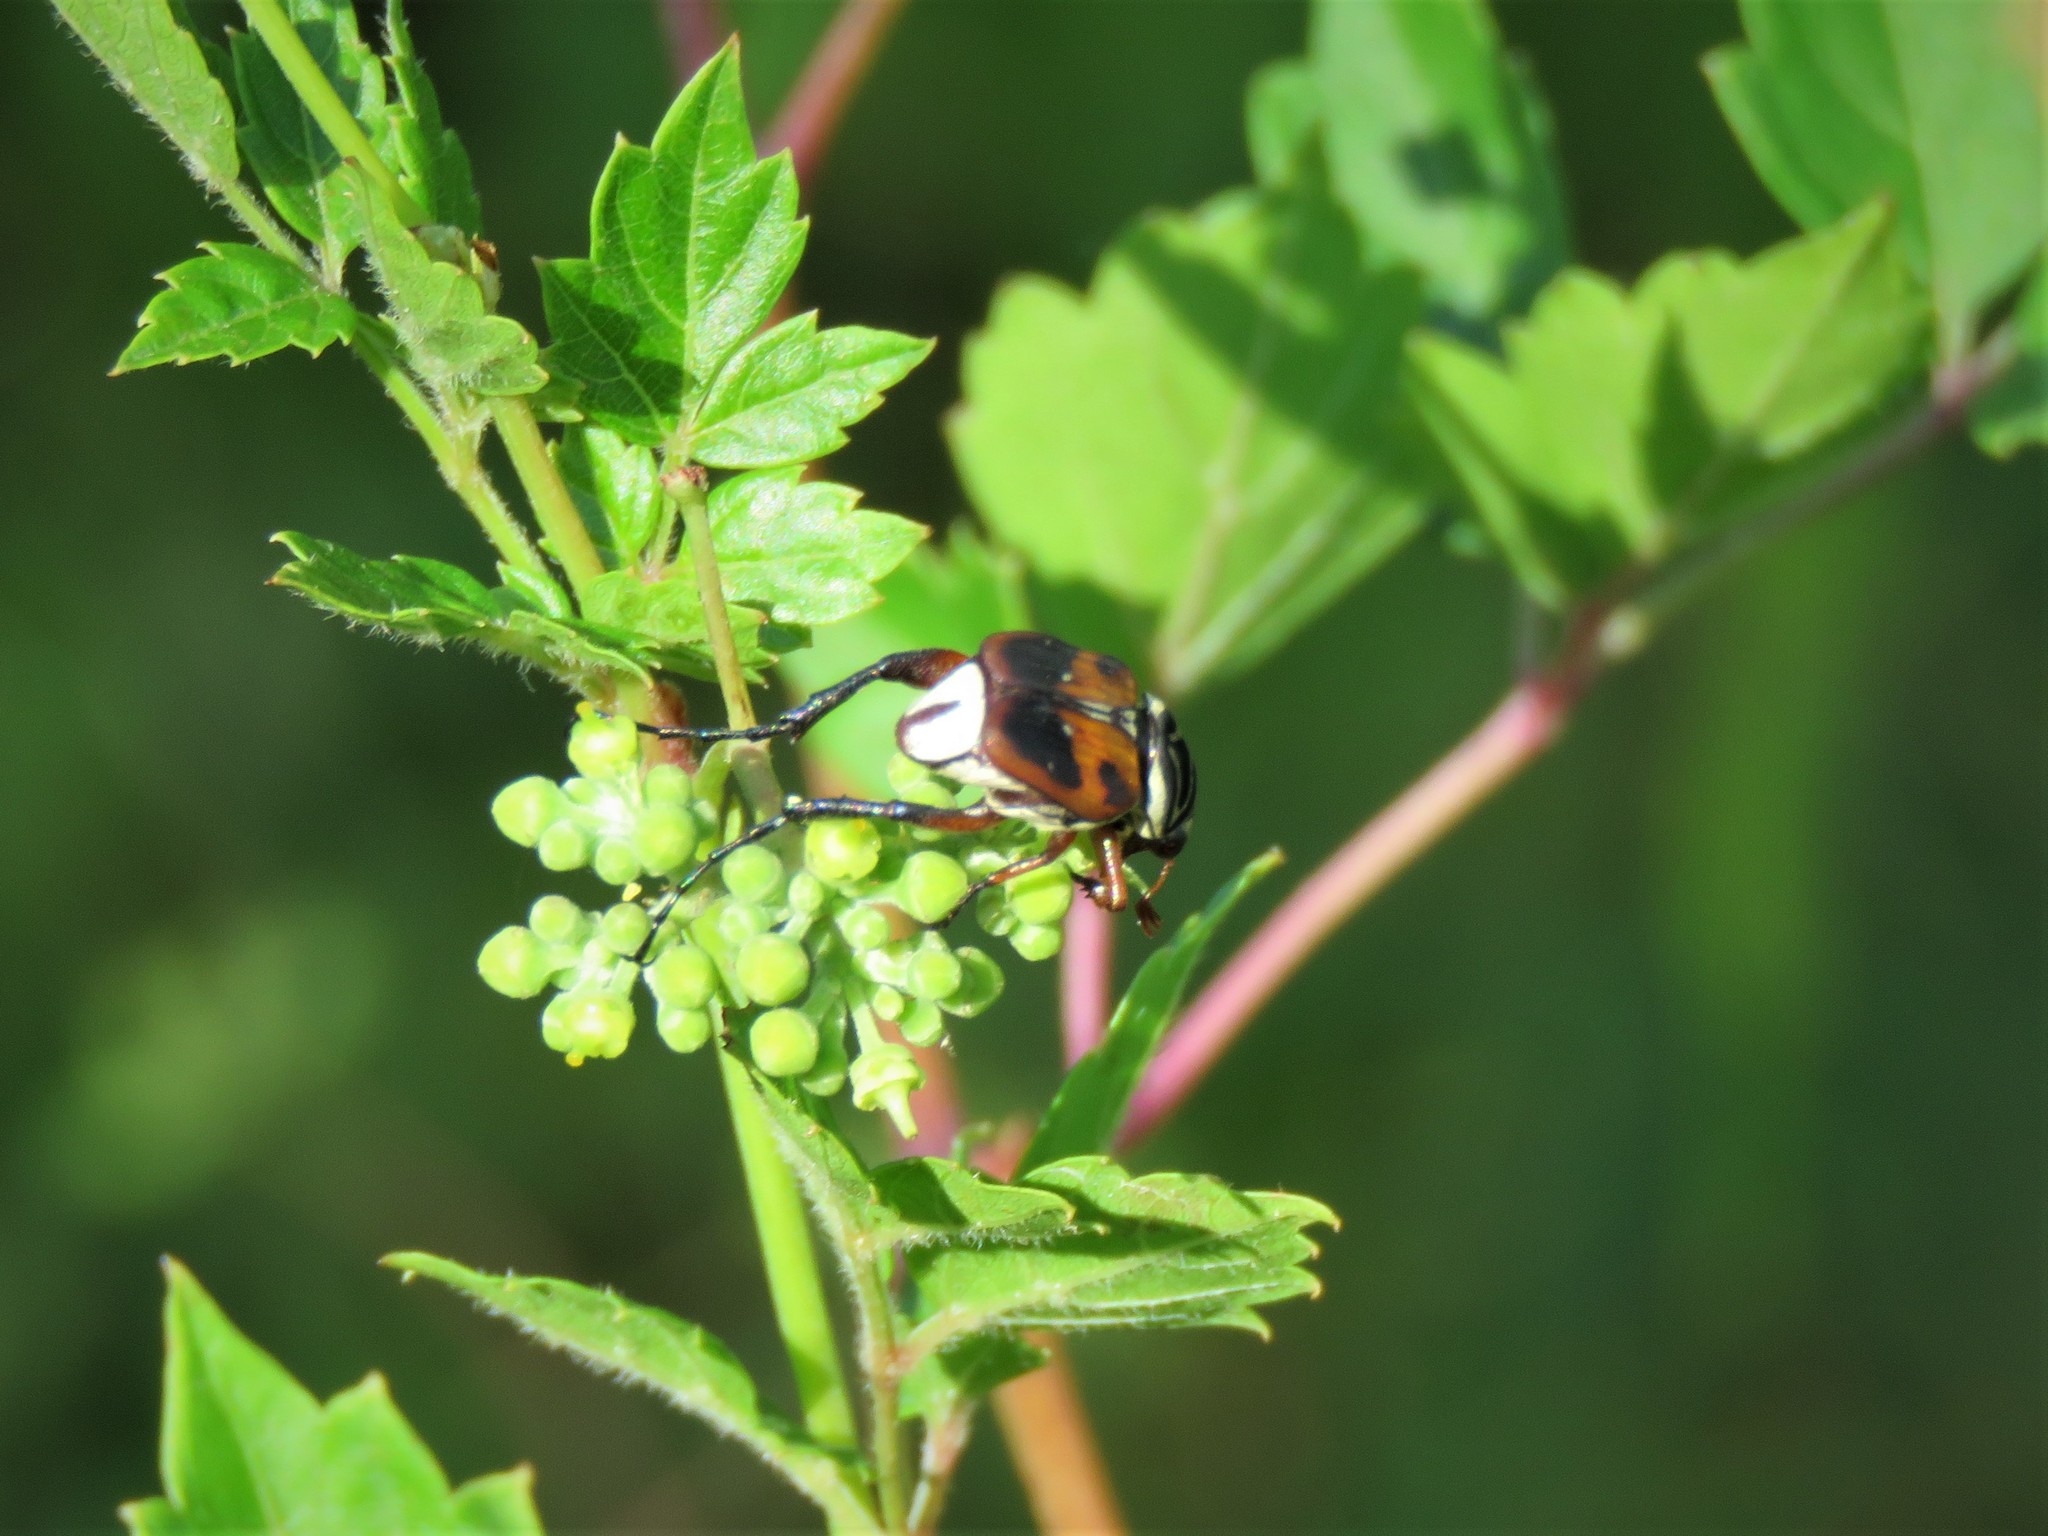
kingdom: Animalia
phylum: Arthropoda
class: Insecta
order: Coleoptera
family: Scarabaeidae
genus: Trigonopeltastes
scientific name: Trigonopeltastes delta
